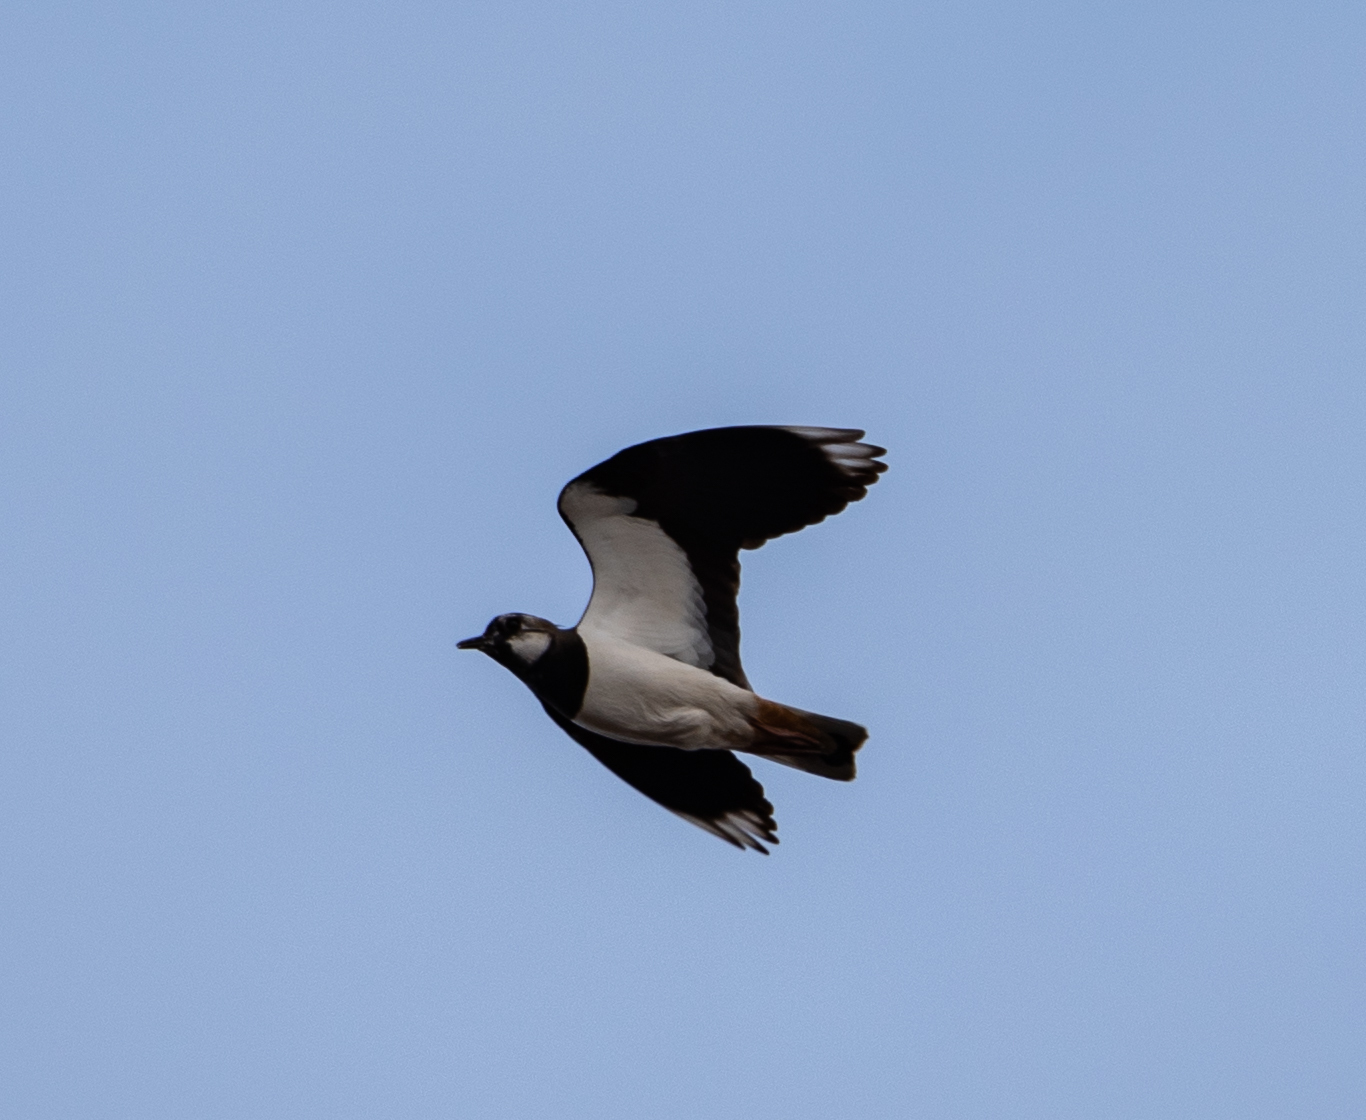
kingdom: Animalia
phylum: Chordata
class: Aves
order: Charadriiformes
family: Charadriidae
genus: Vanellus
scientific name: Vanellus vanellus
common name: Northern lapwing
